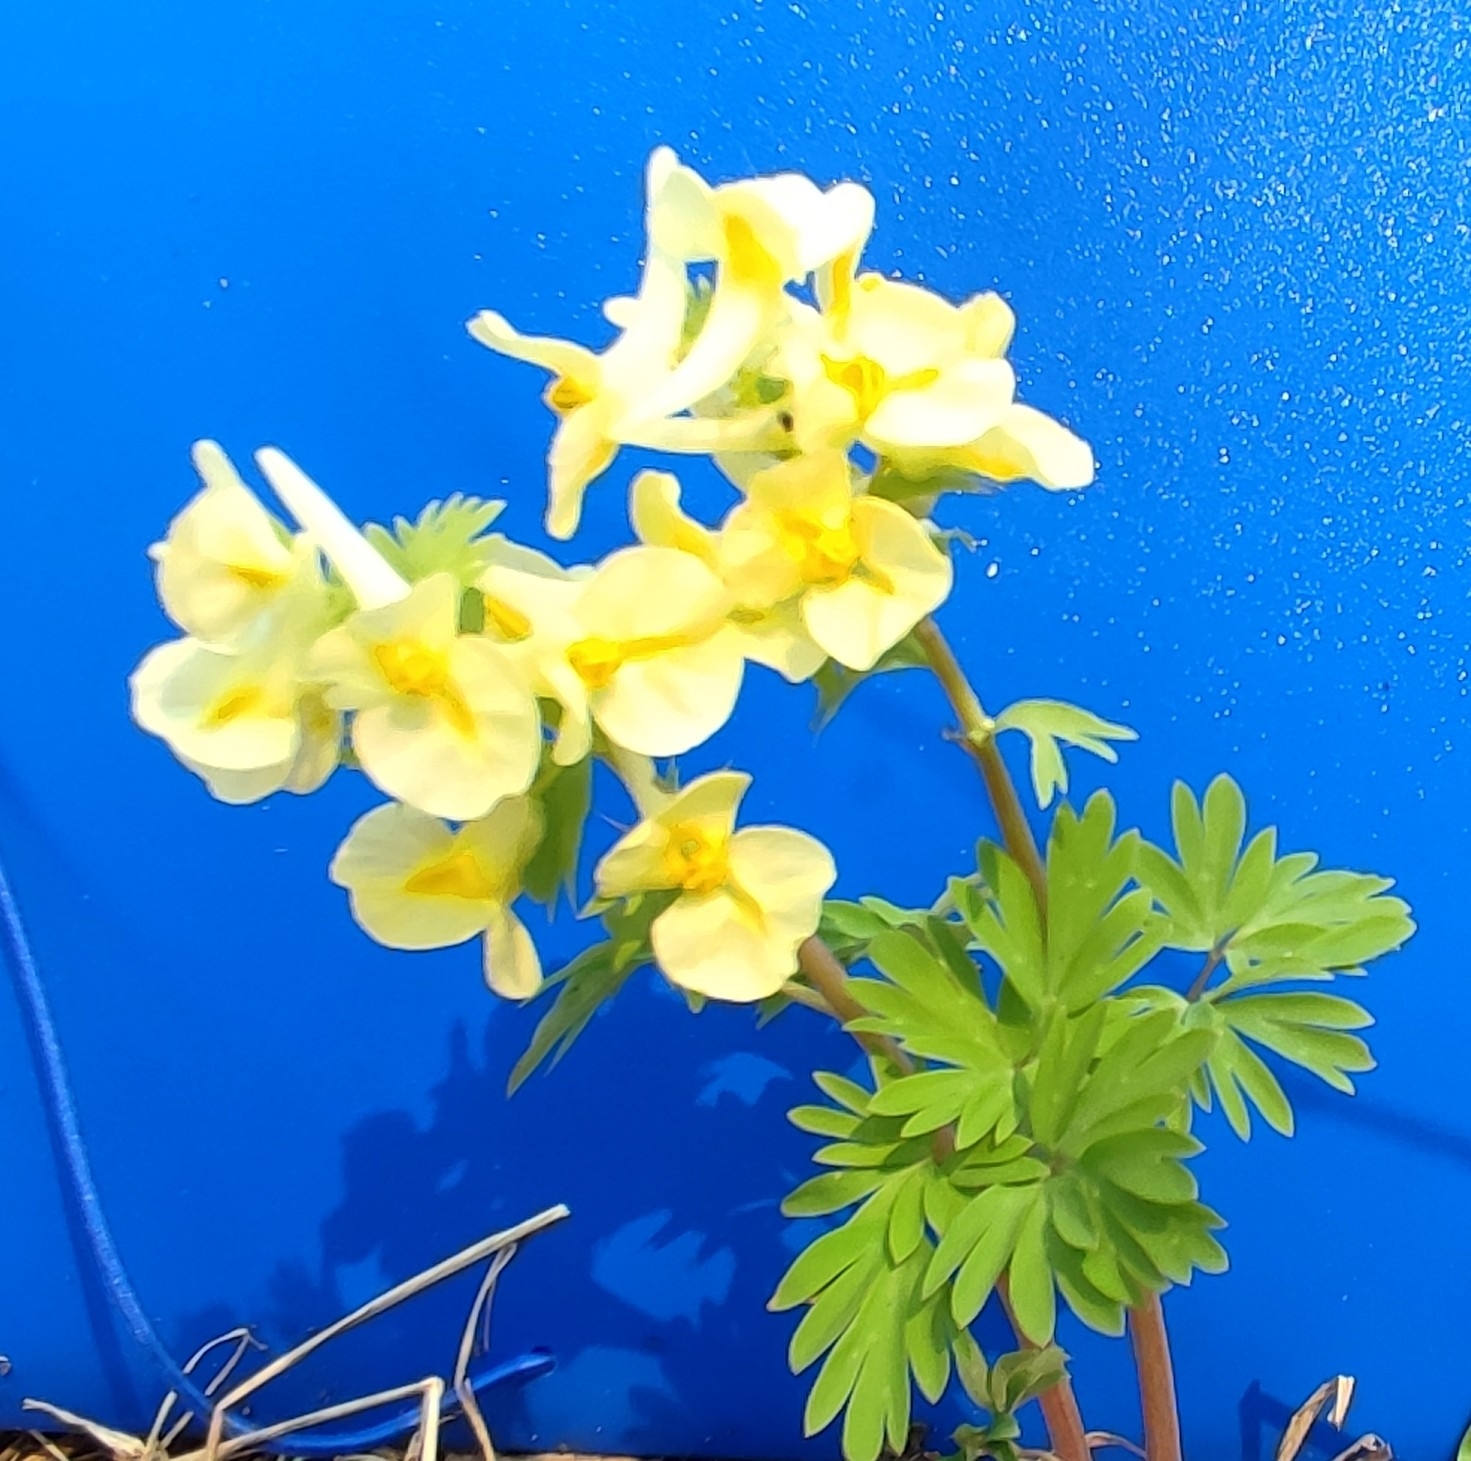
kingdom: Plantae
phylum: Tracheophyta
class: Magnoliopsida
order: Ranunculales
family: Papaveraceae
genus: Corydalis
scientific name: Corydalis bracteata
